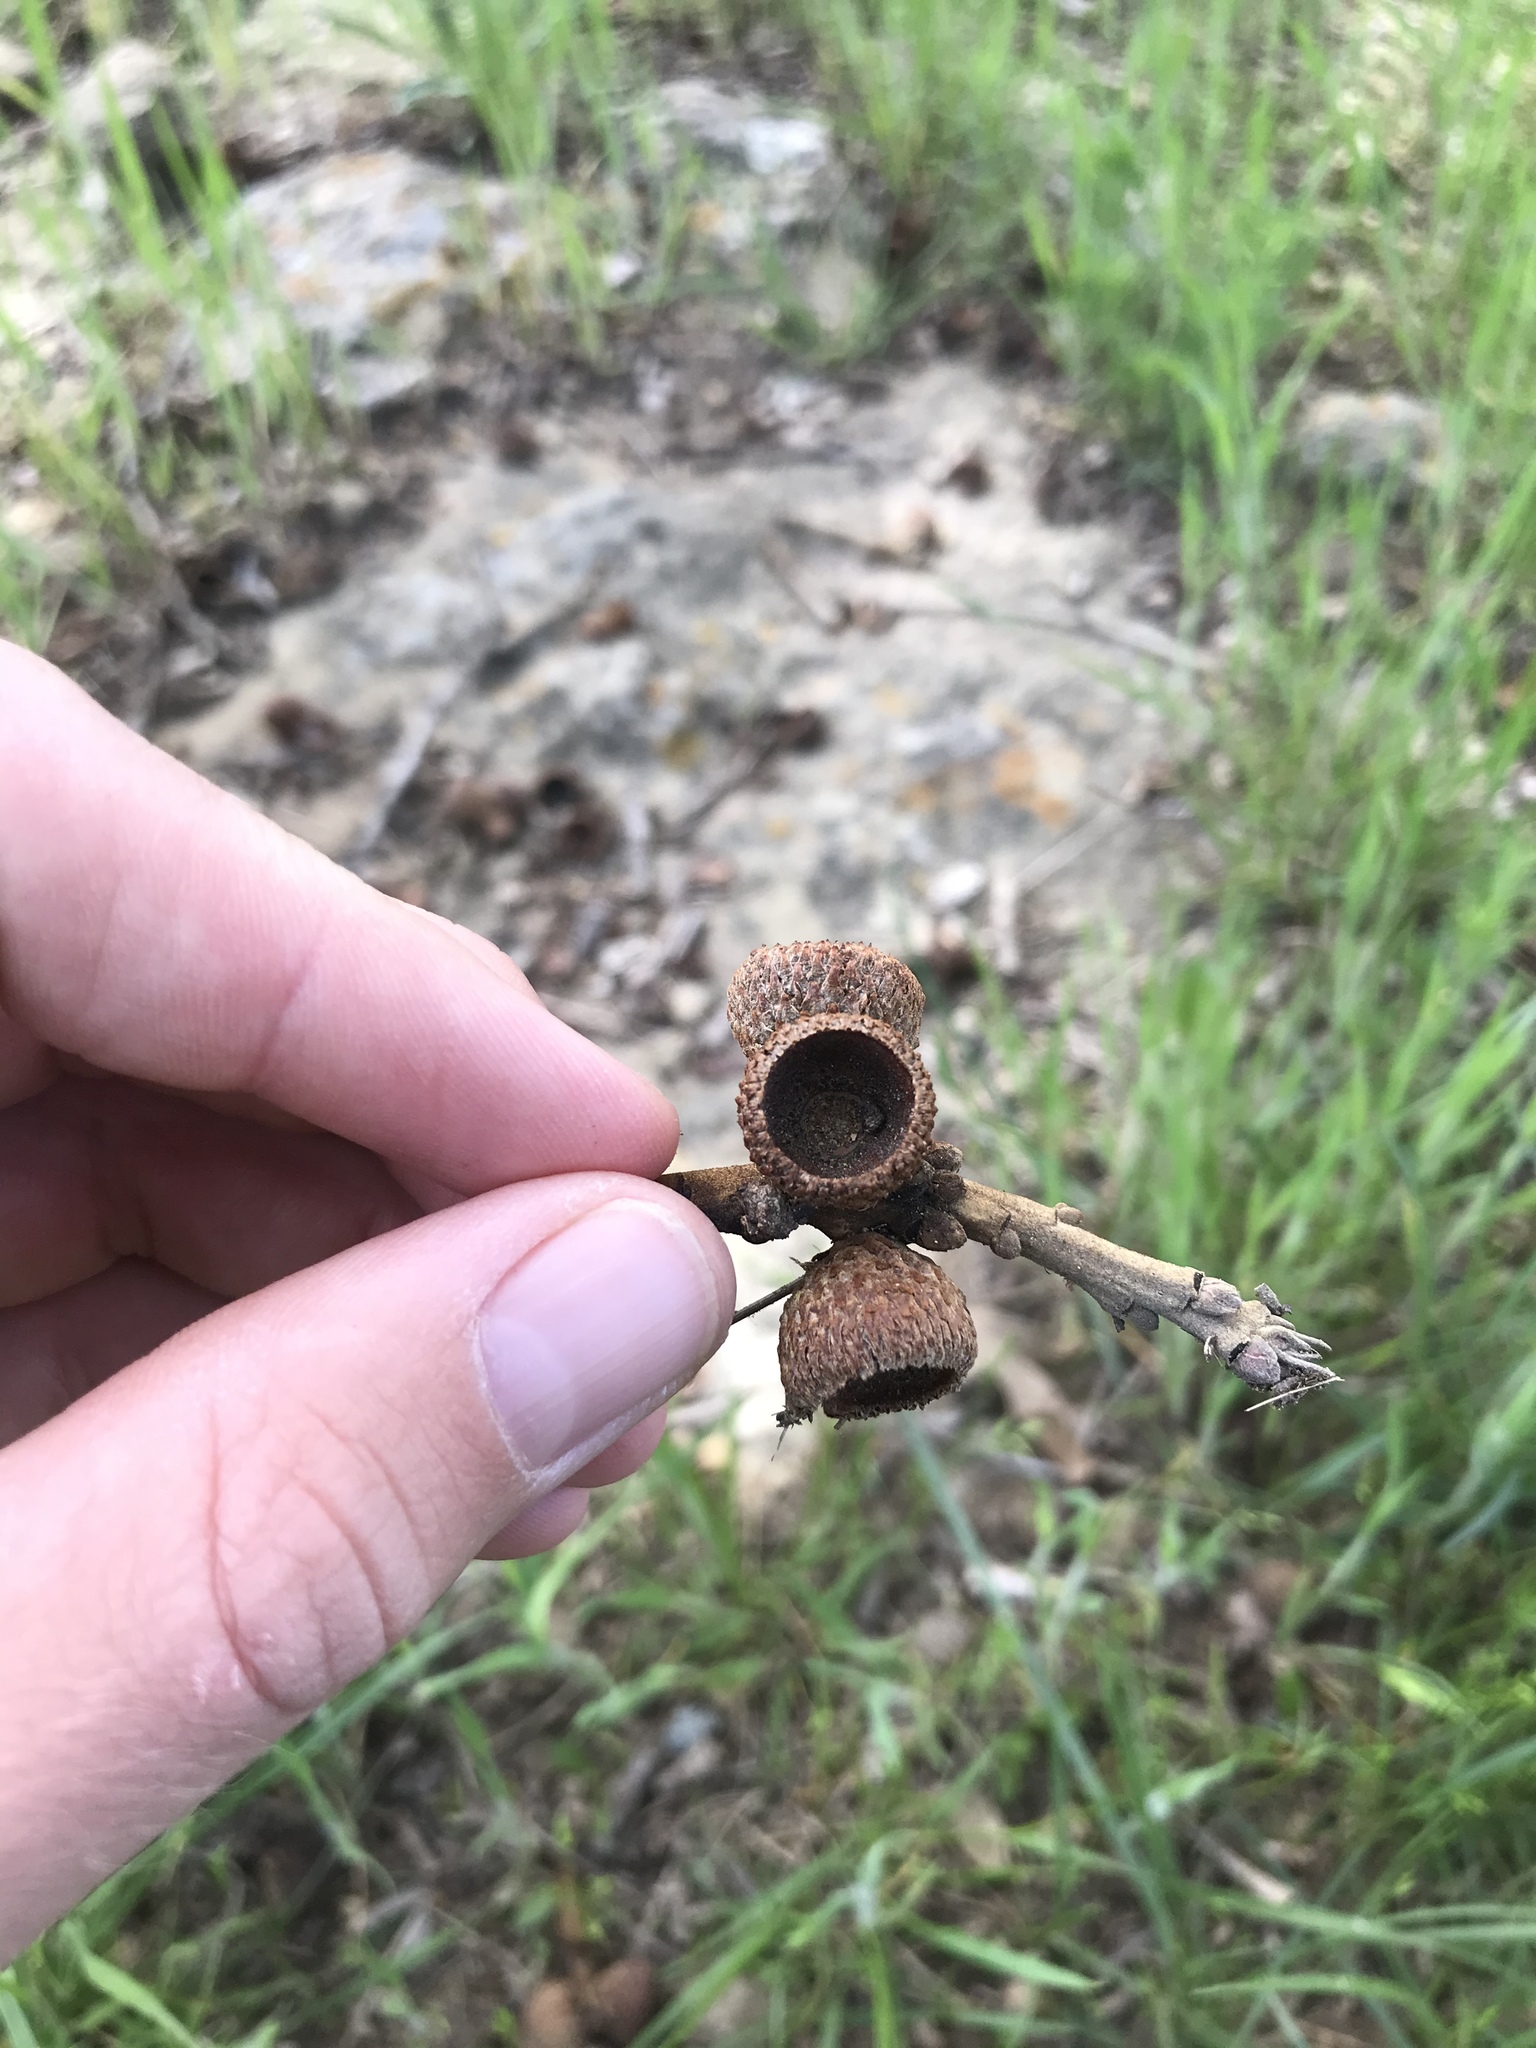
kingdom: Plantae
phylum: Tracheophyta
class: Magnoliopsida
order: Fagales
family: Fagaceae
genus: Quercus
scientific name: Quercus stellata
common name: Post oak
